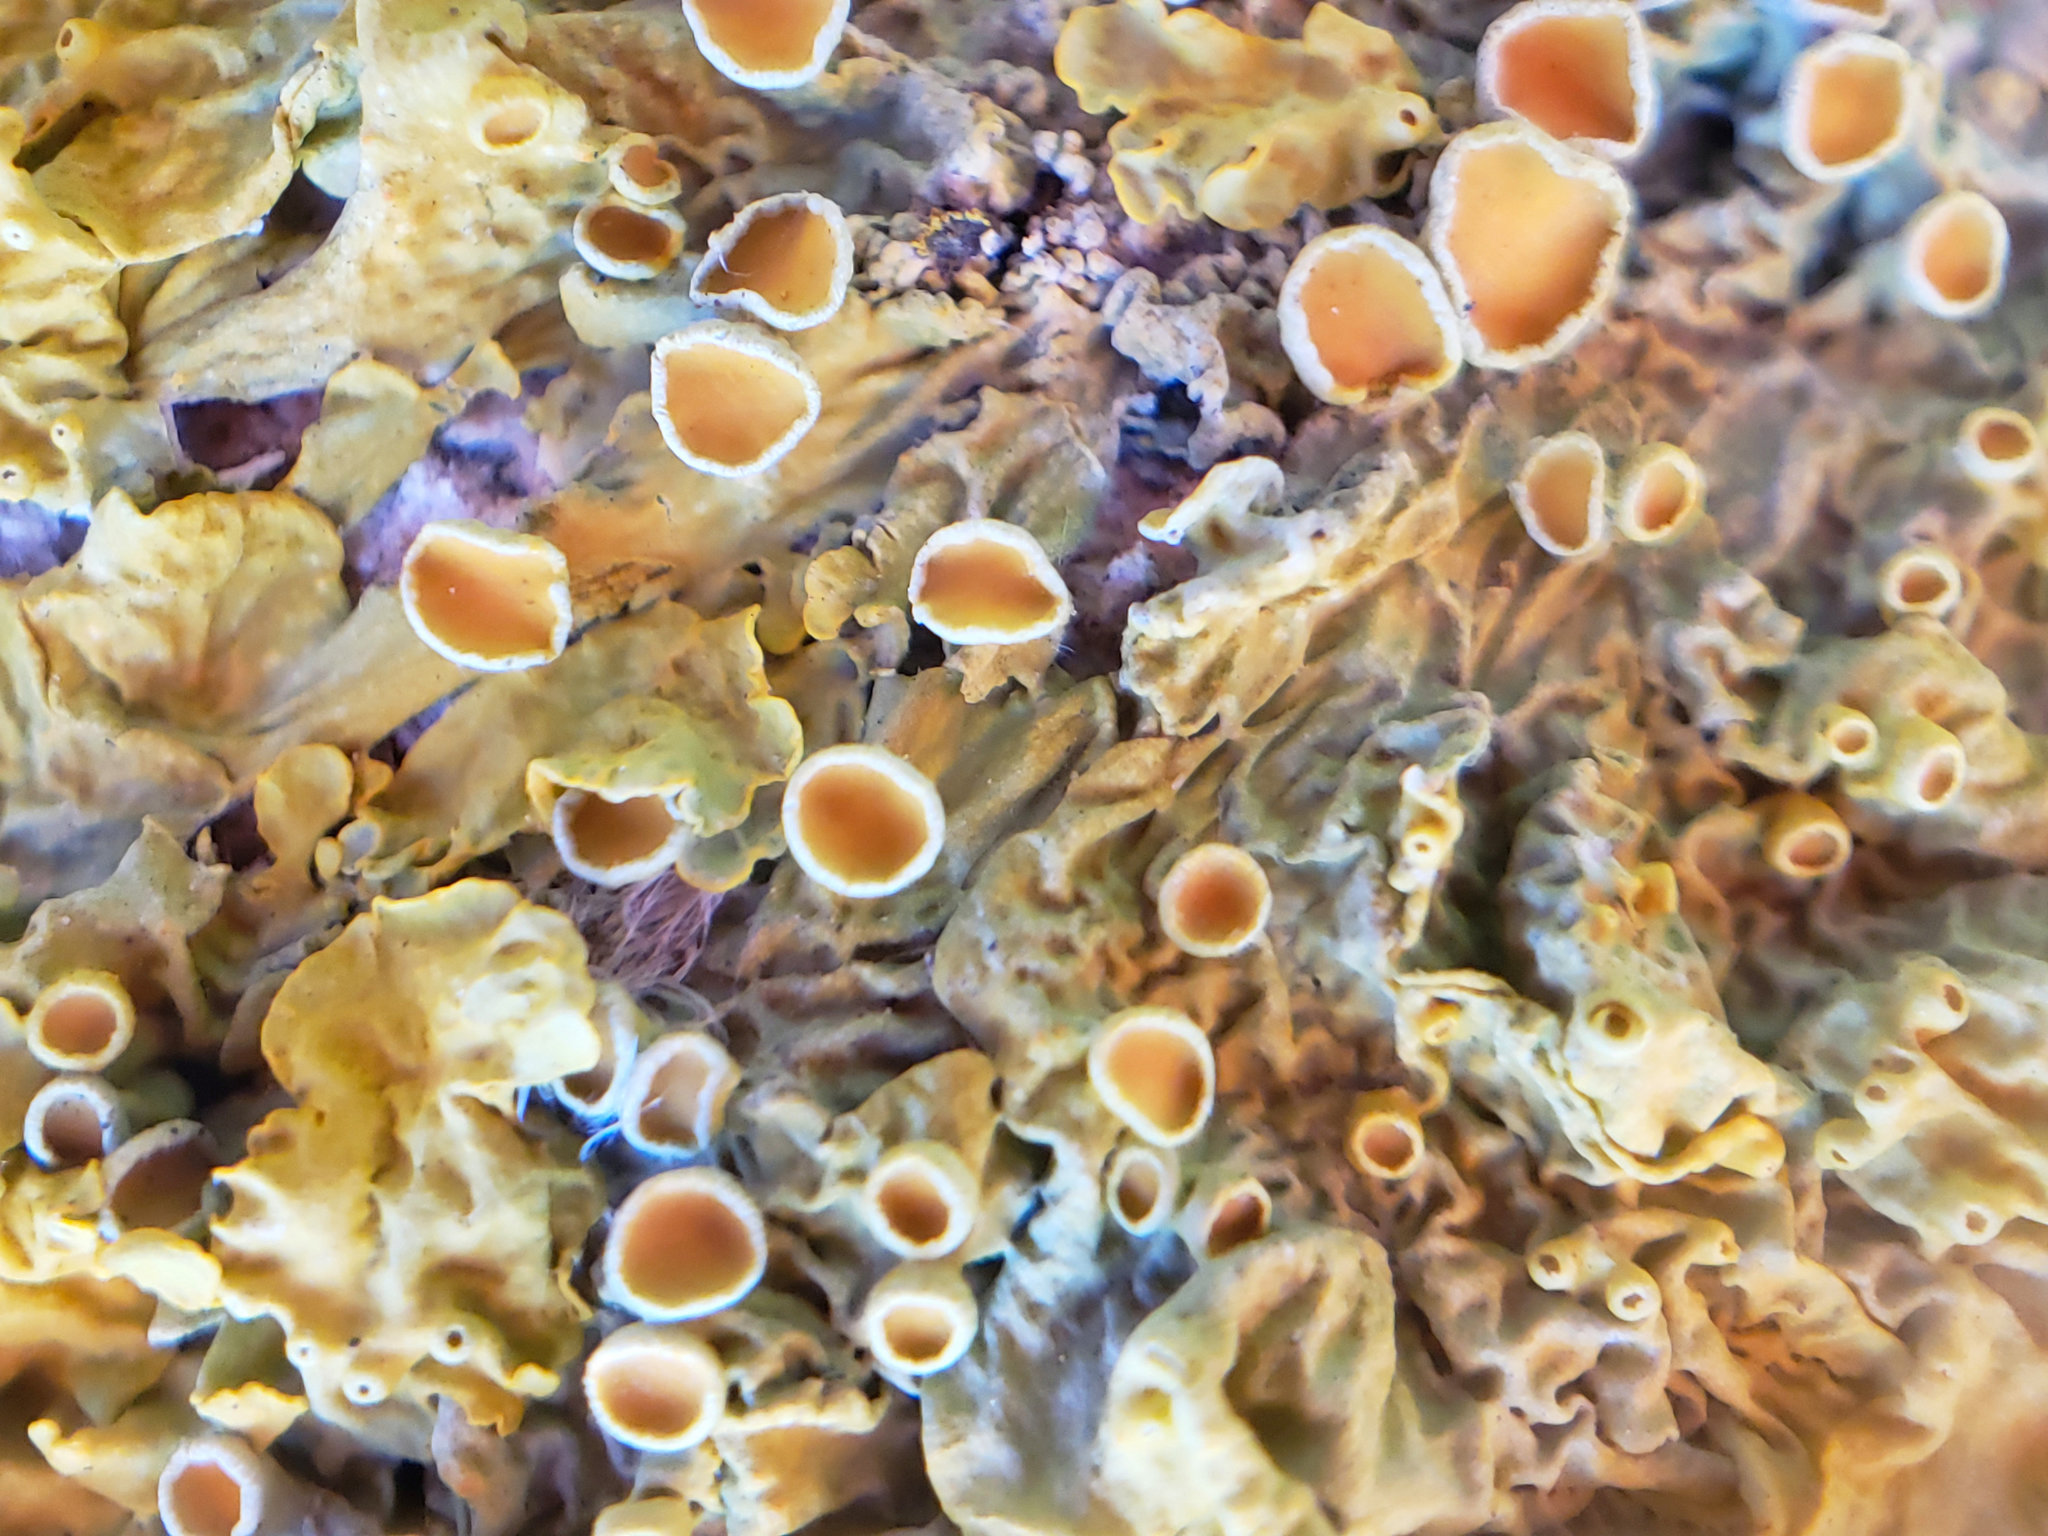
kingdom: Fungi
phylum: Ascomycota
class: Lecanoromycetes
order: Teloschistales
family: Teloschistaceae
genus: Xanthoria
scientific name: Xanthoria parietina
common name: Common orange lichen
